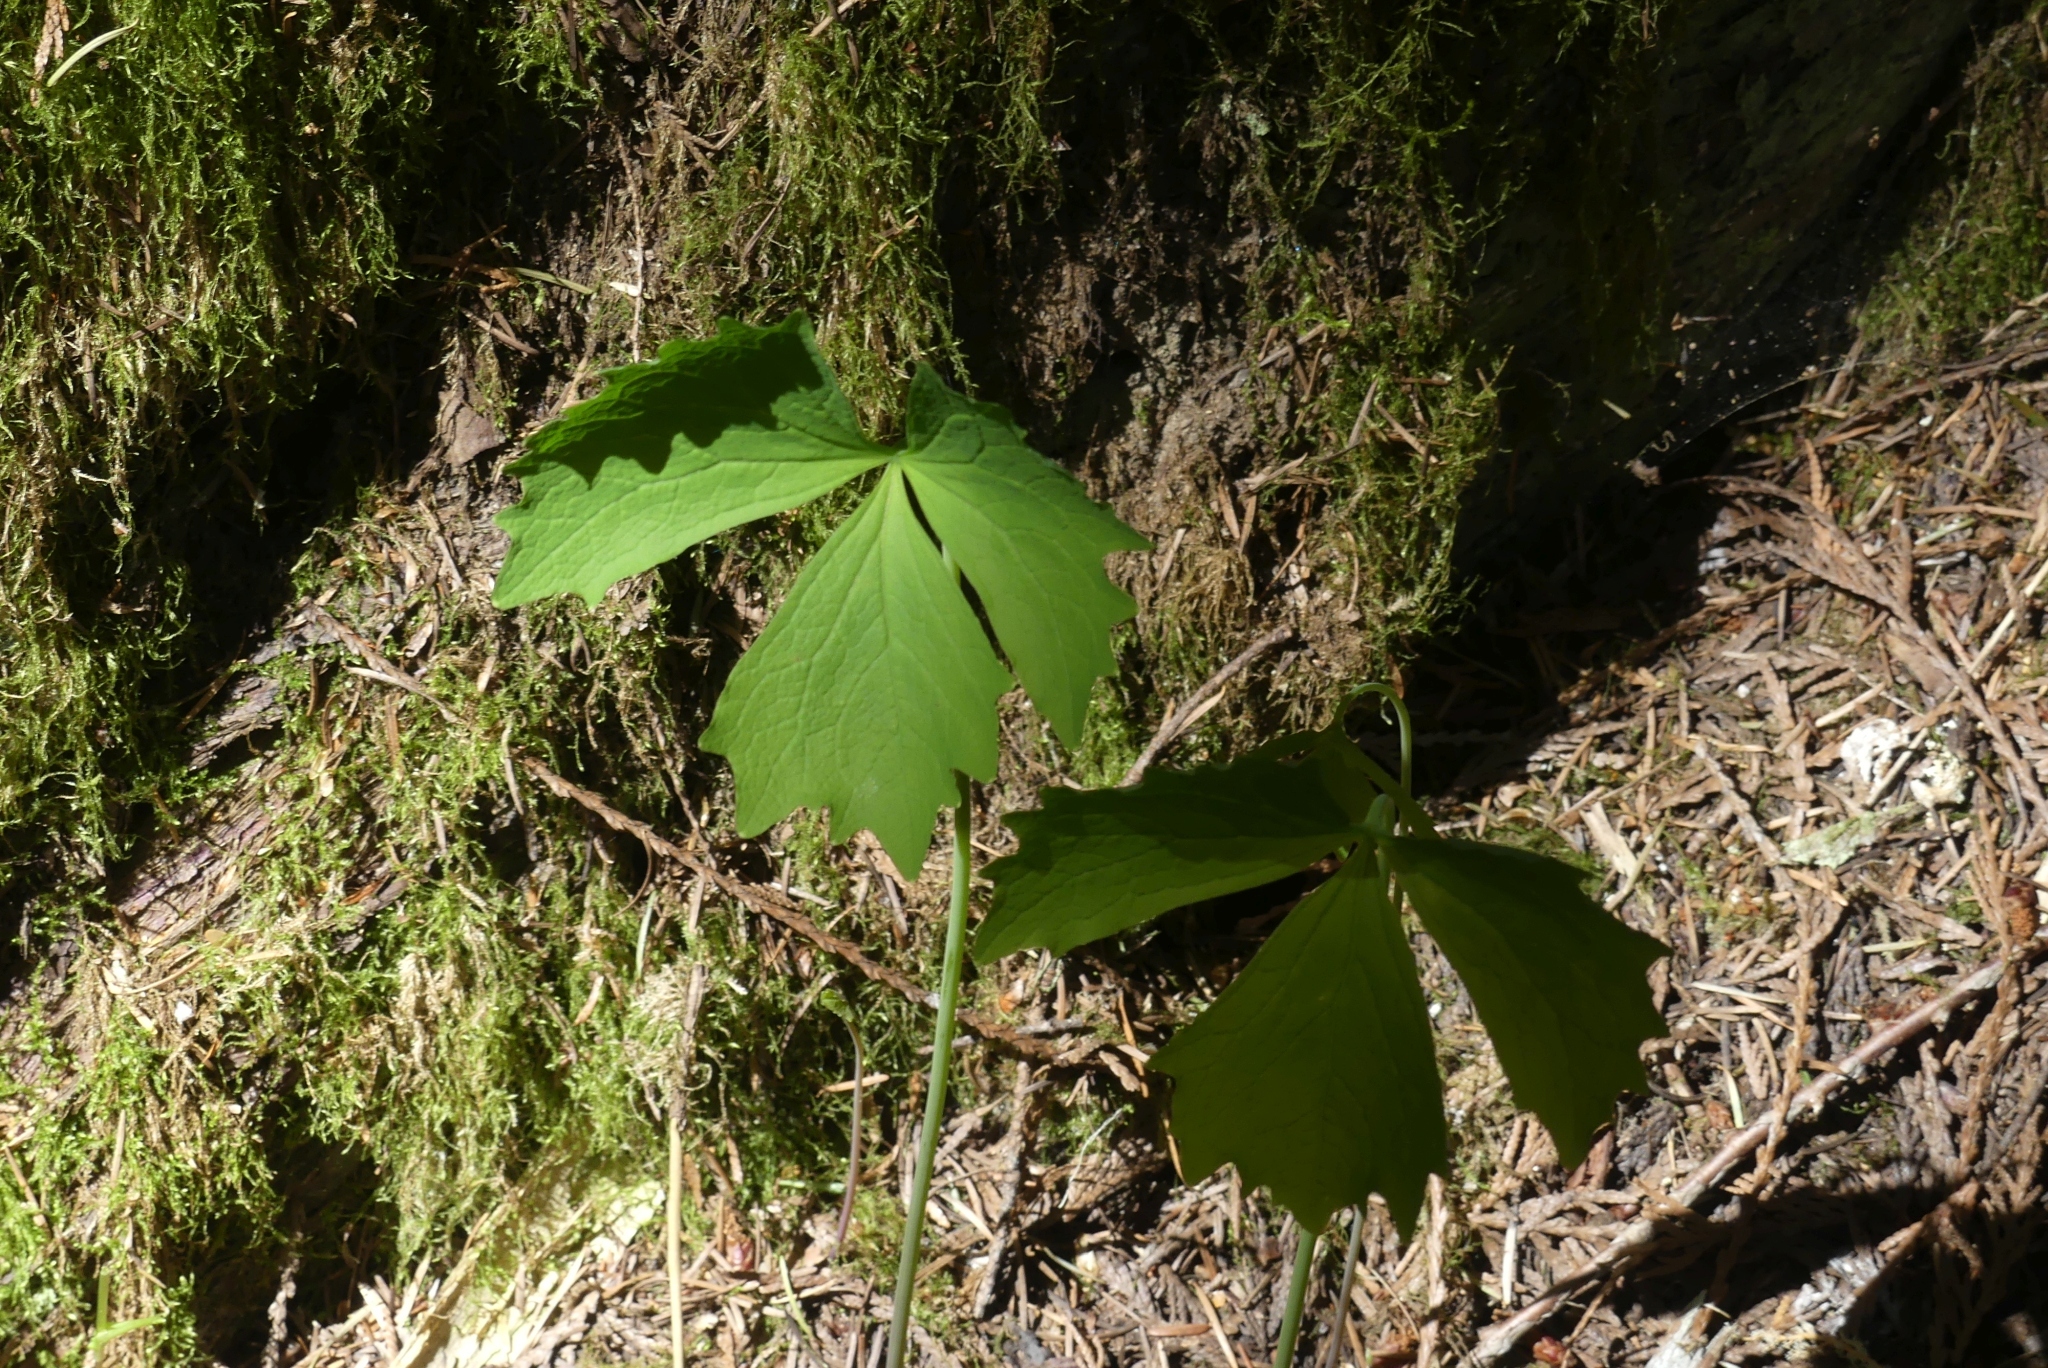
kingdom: Plantae
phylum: Tracheophyta
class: Magnoliopsida
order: Ranunculales
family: Berberidaceae
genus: Achlys
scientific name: Achlys triphylla
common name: Vanilla-leaf
